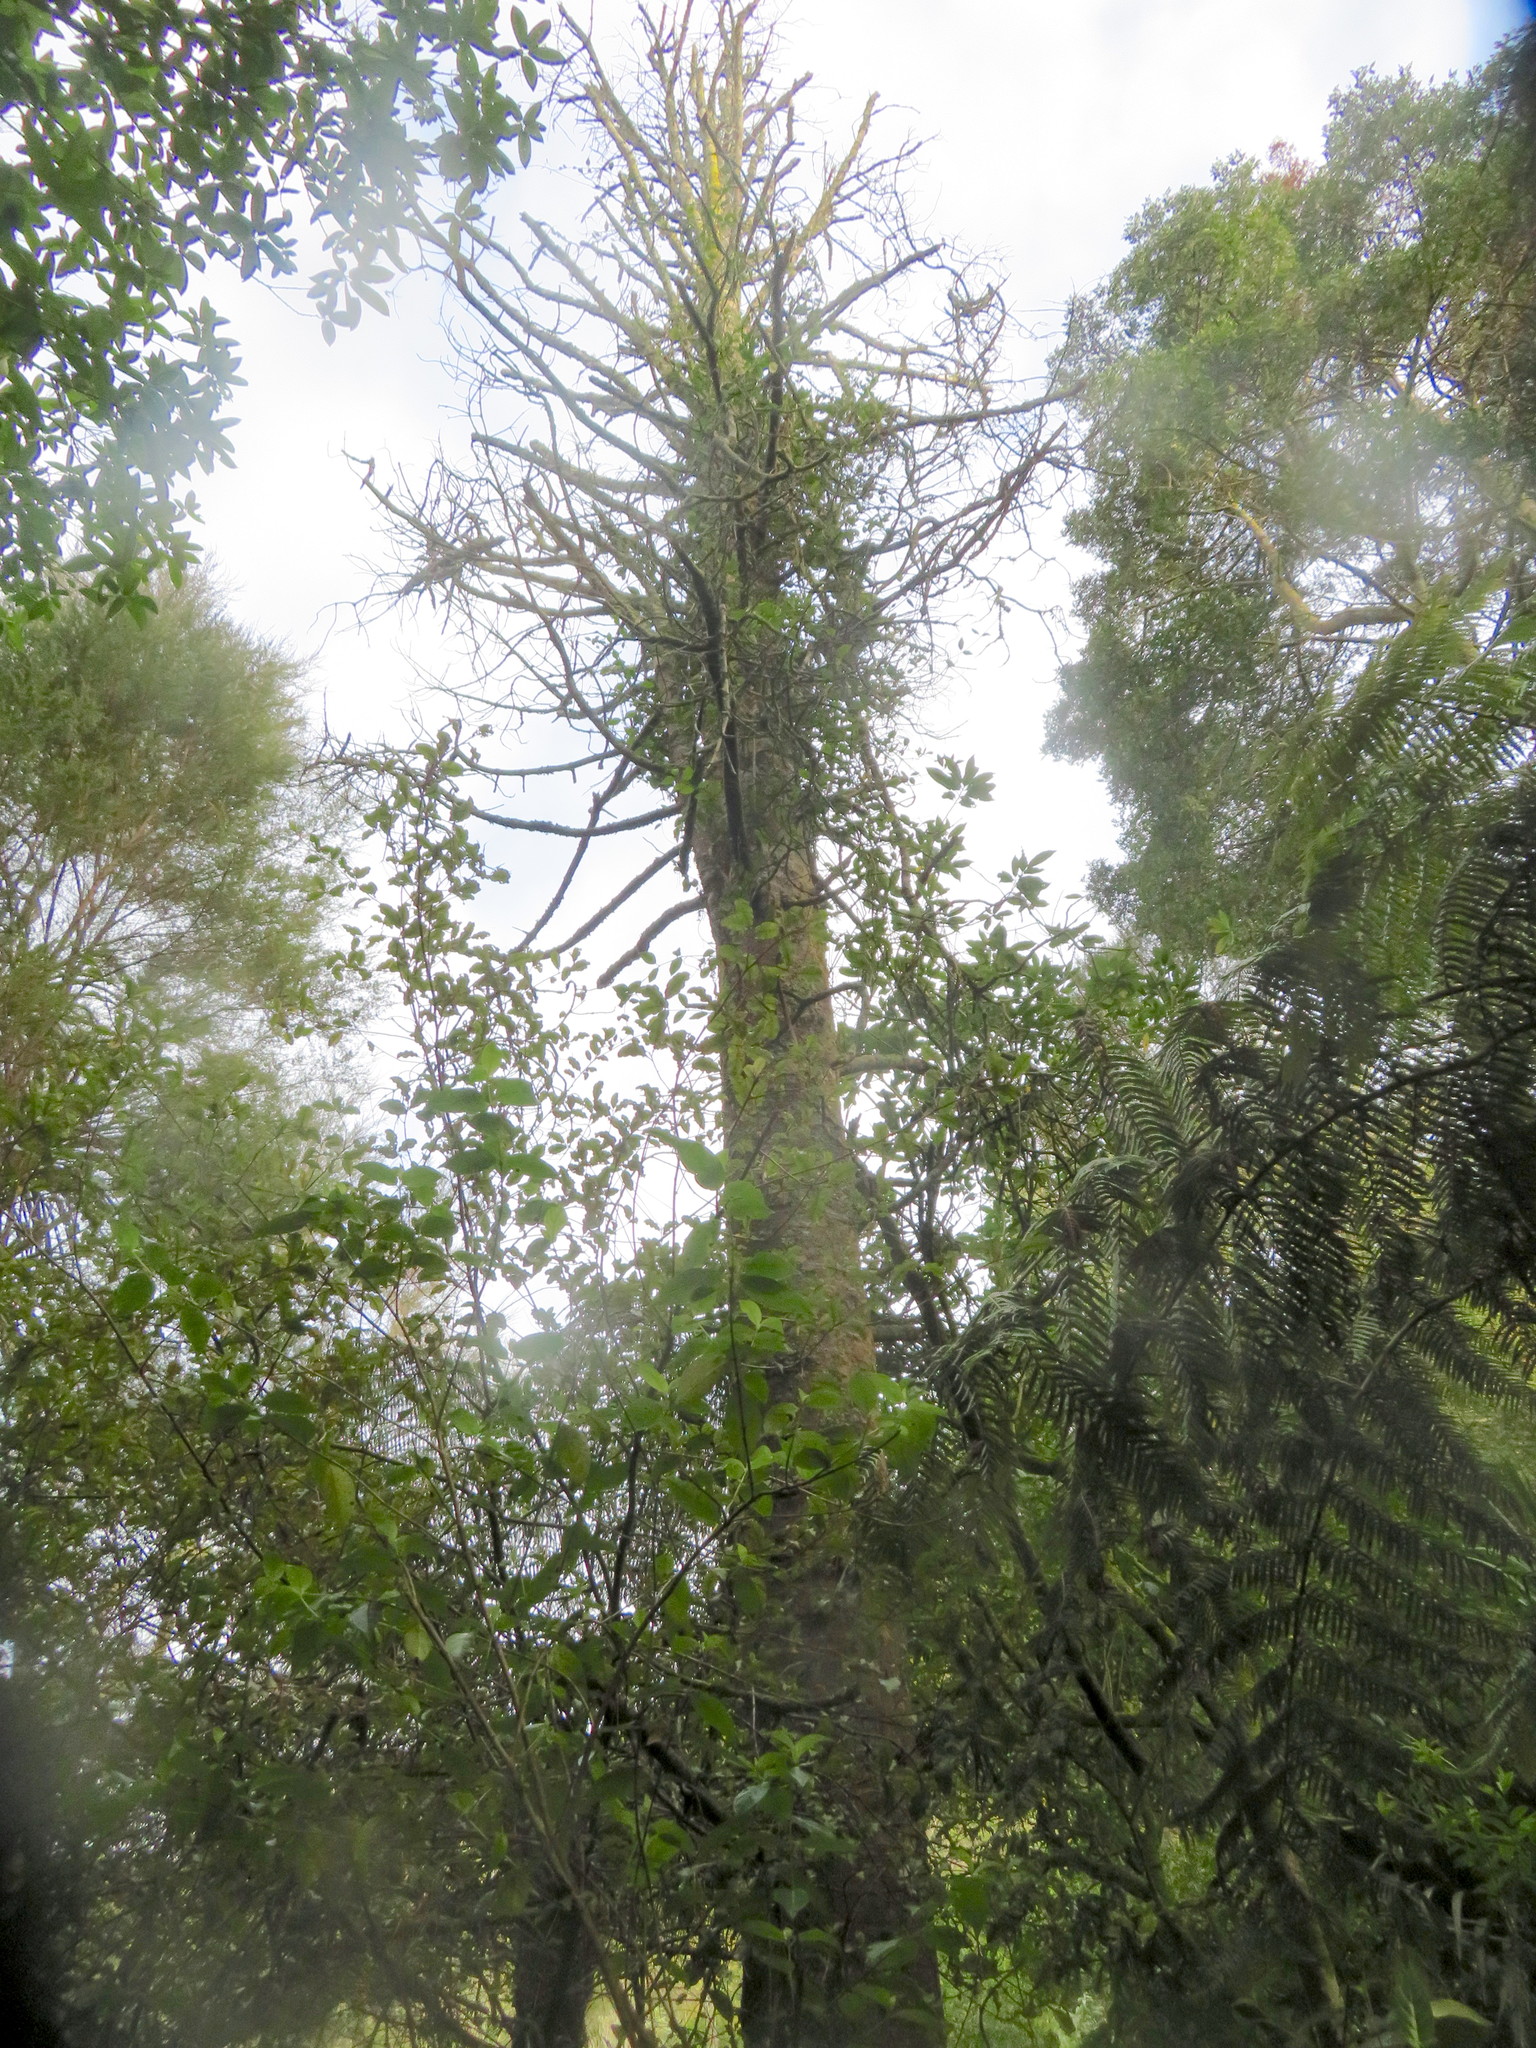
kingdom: Plantae
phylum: Tracheophyta
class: Pinopsida
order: Pinales
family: Phyllocladaceae
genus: Phyllocladus
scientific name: Phyllocladus trichomanoides
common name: Celery pine
